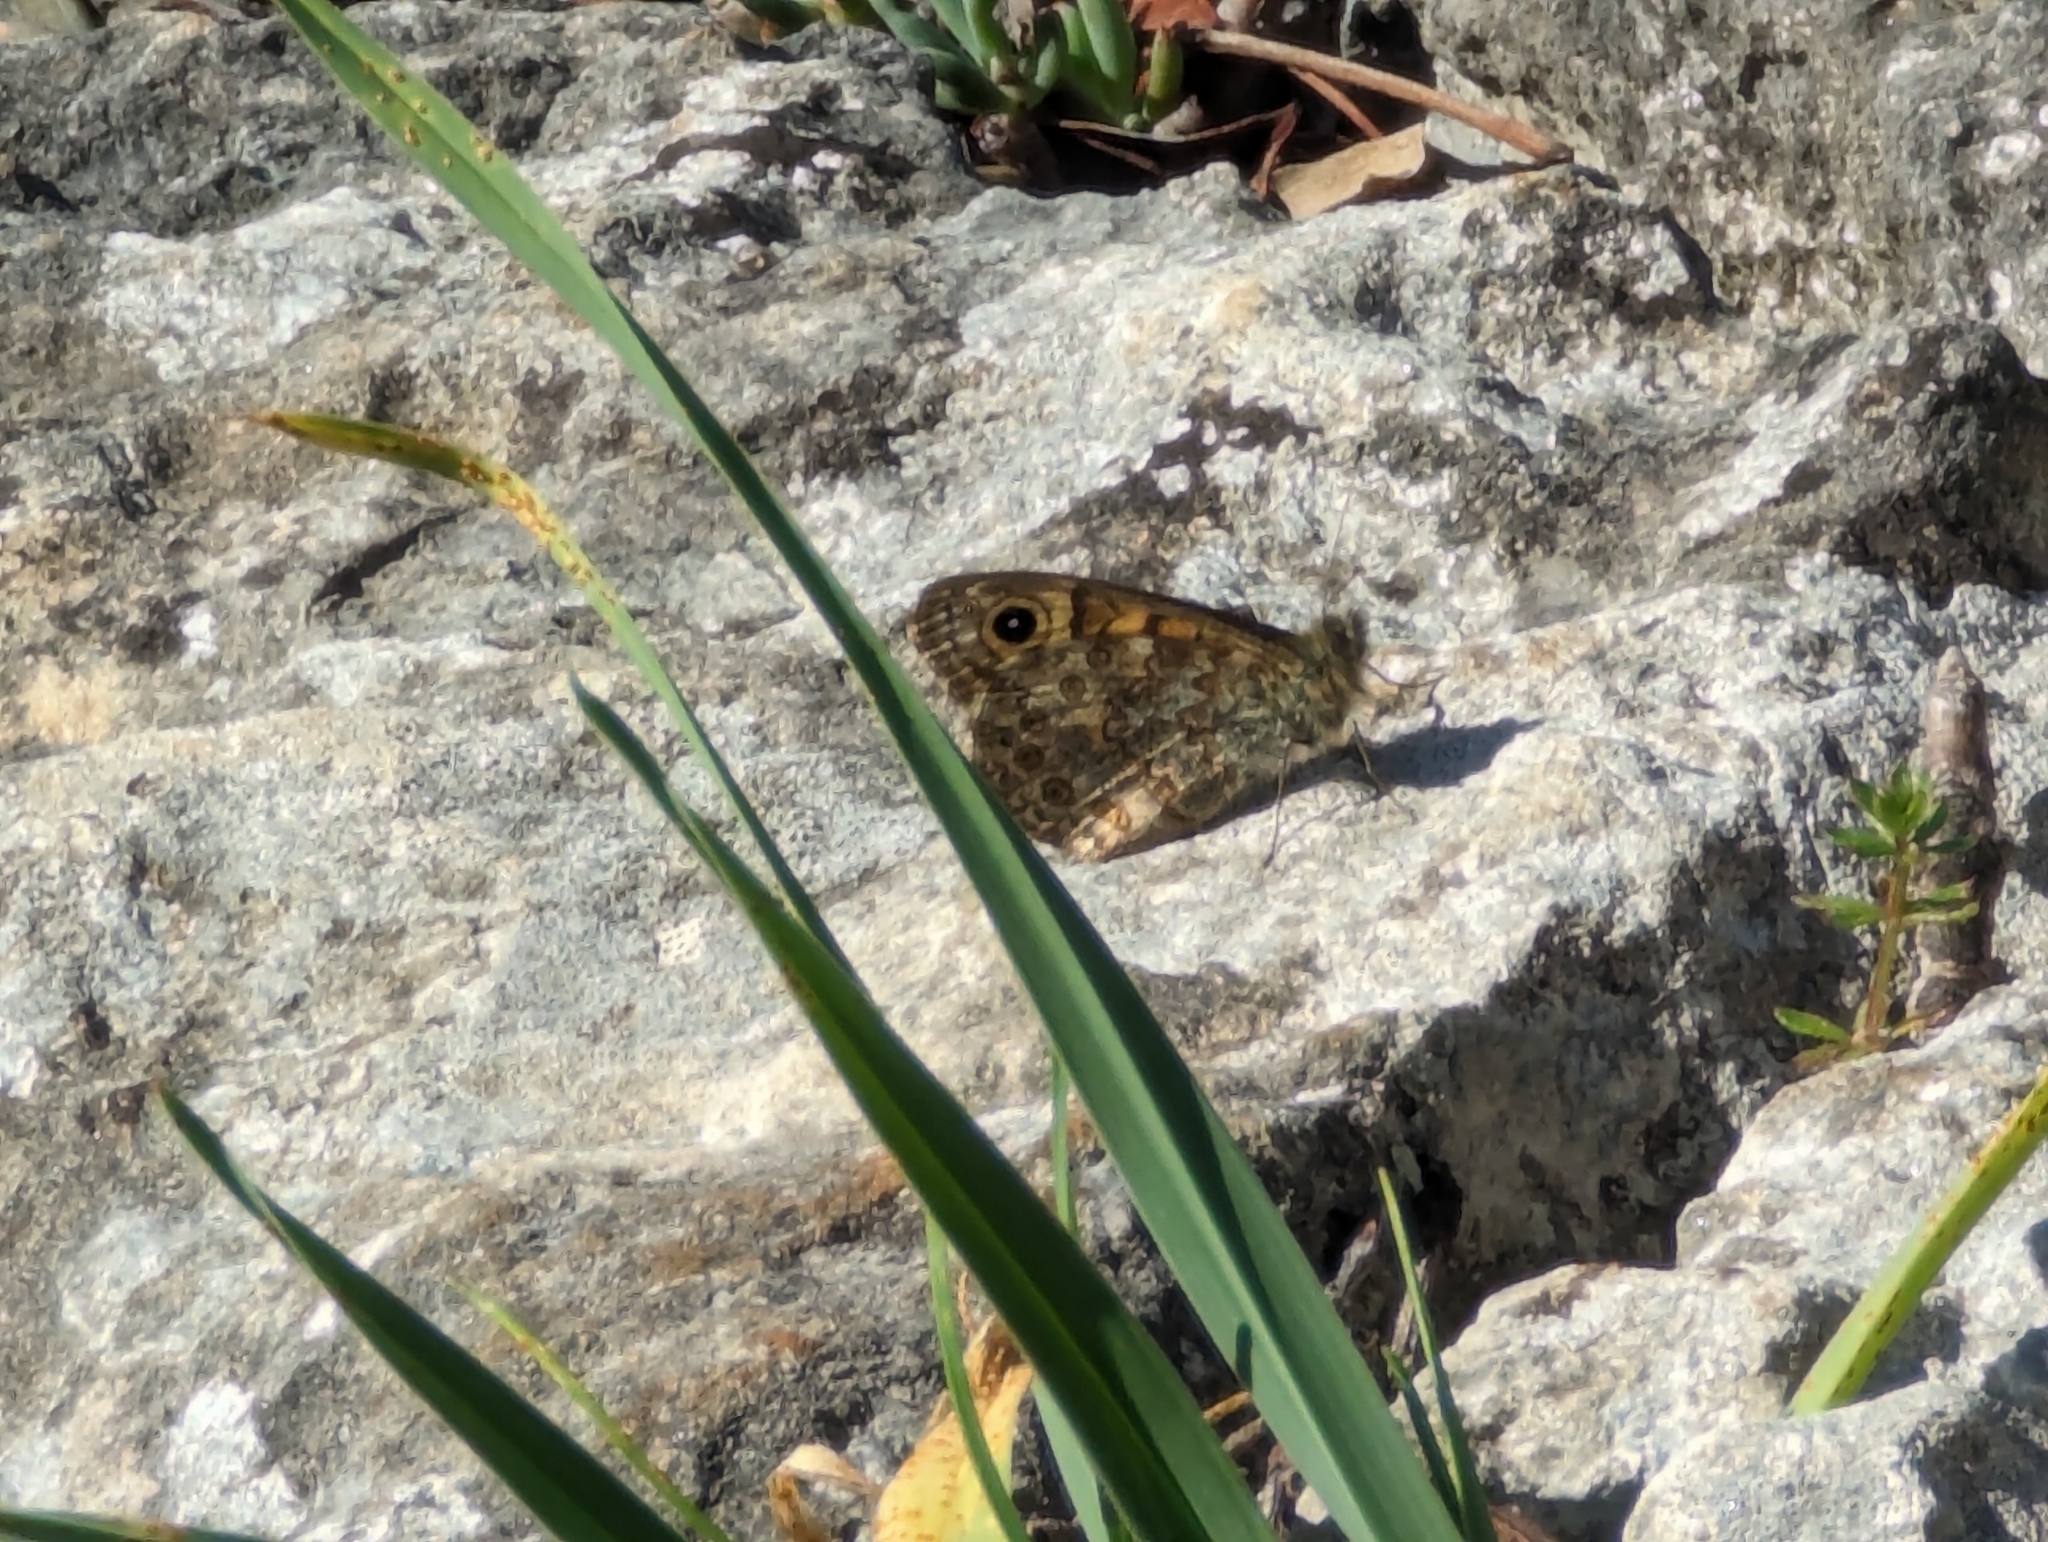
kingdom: Animalia
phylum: Arthropoda
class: Insecta
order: Lepidoptera
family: Nymphalidae
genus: Pararge
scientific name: Pararge Lasiommata megera
